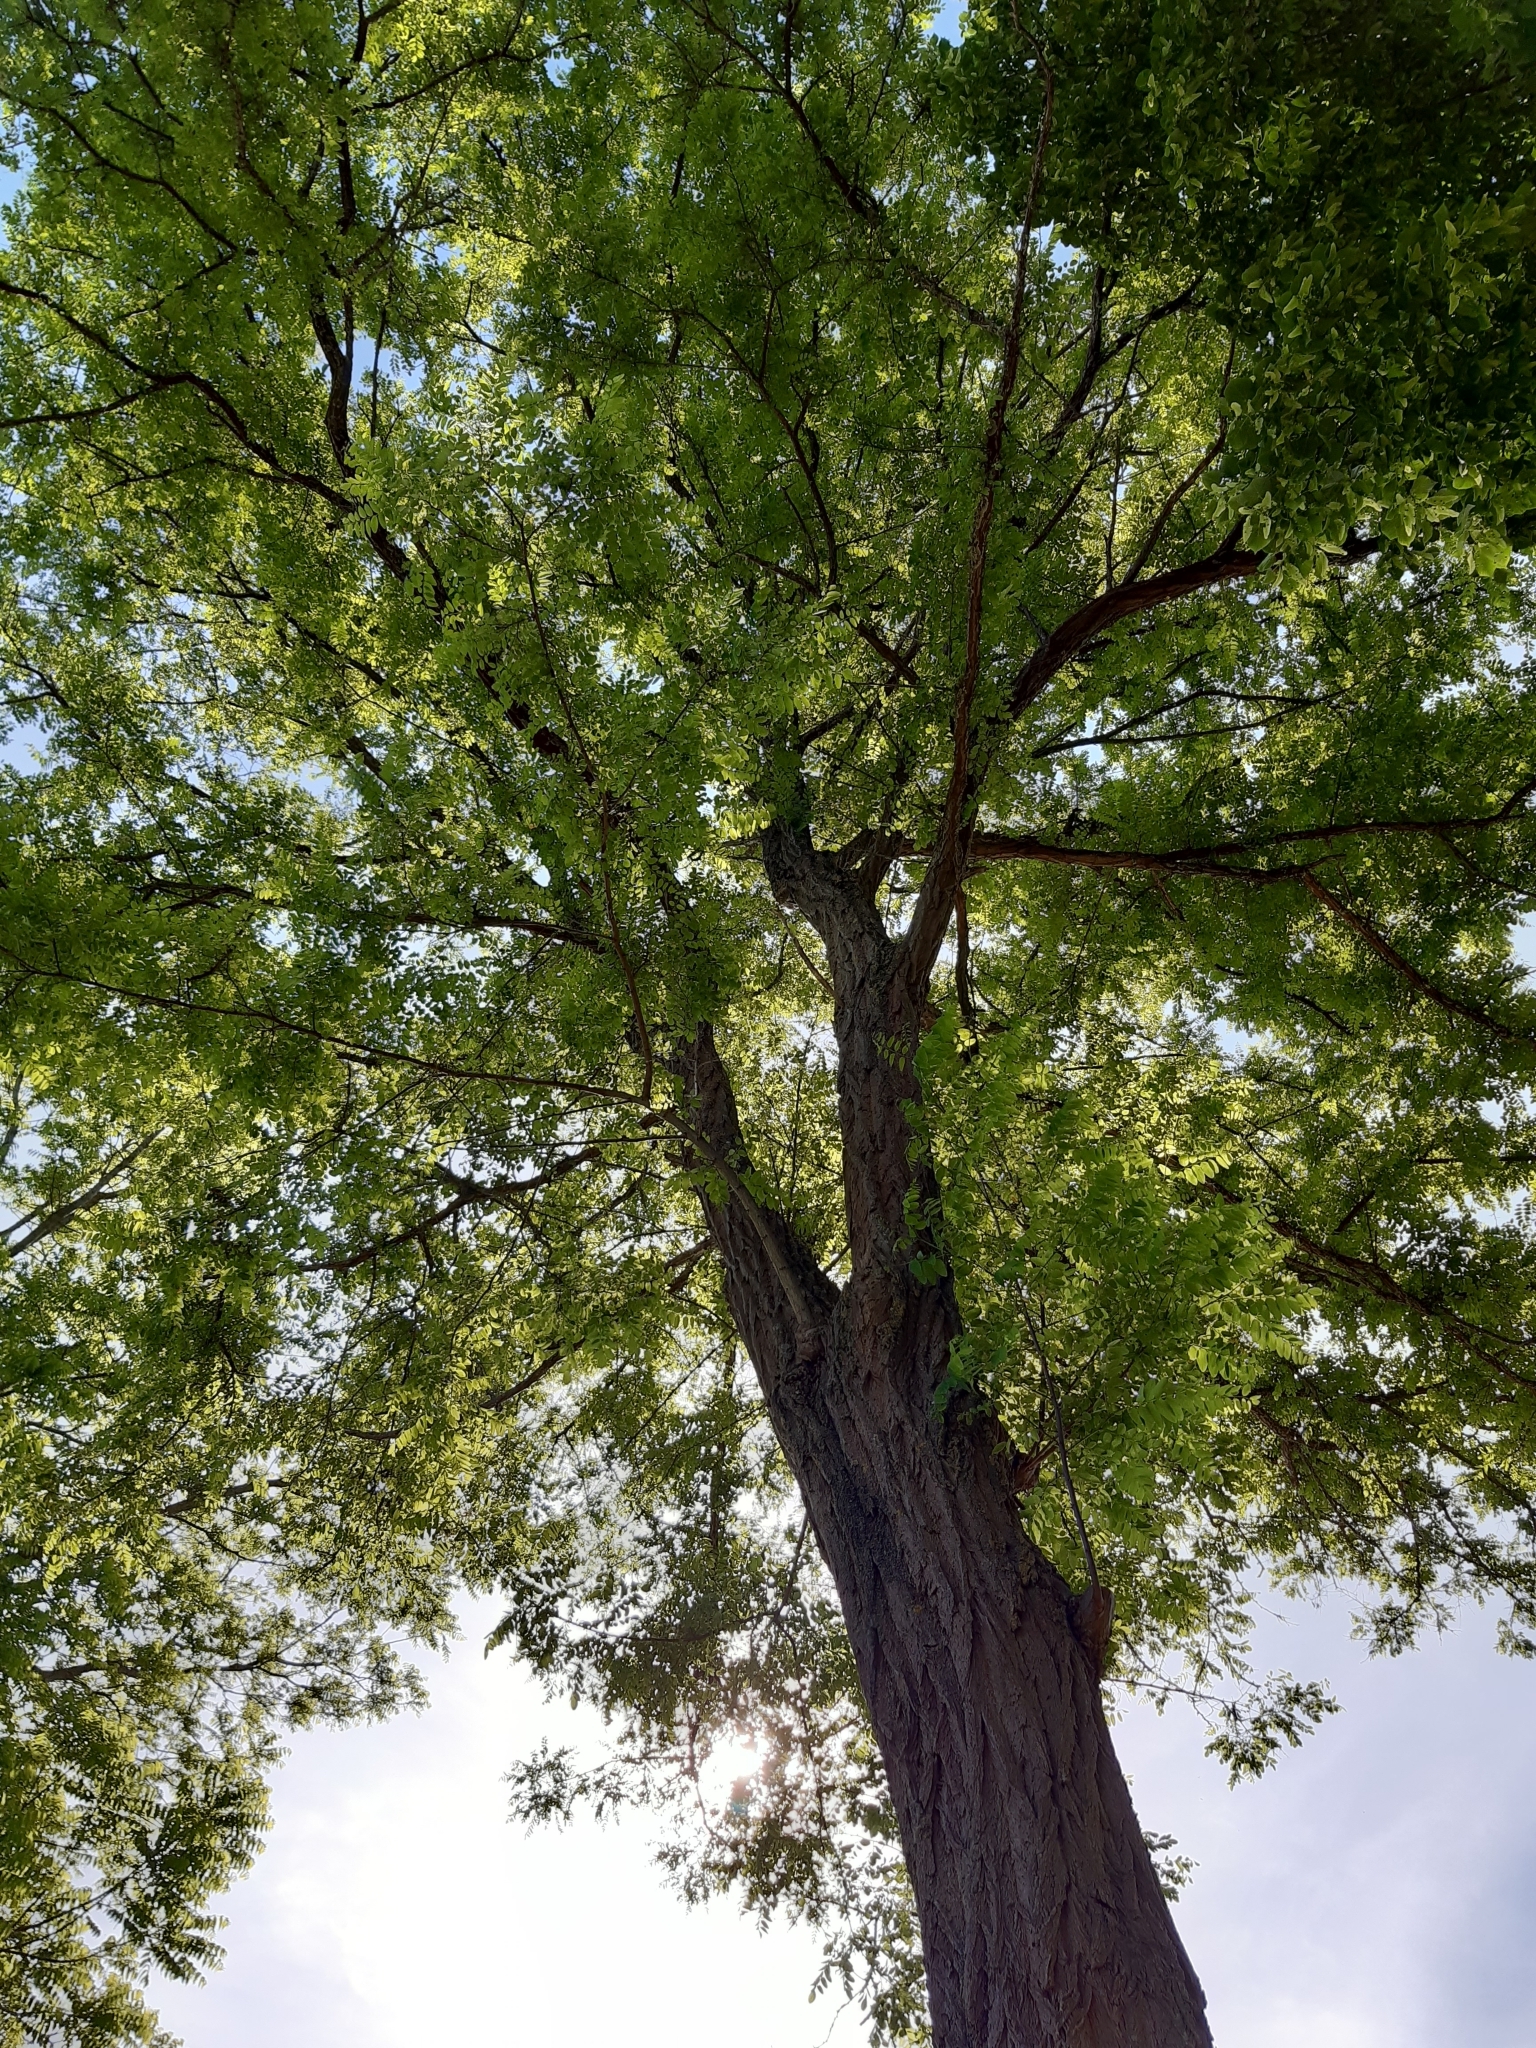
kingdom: Plantae
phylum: Tracheophyta
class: Magnoliopsida
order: Fabales
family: Fabaceae
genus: Robinia
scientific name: Robinia pseudoacacia
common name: Black locust
